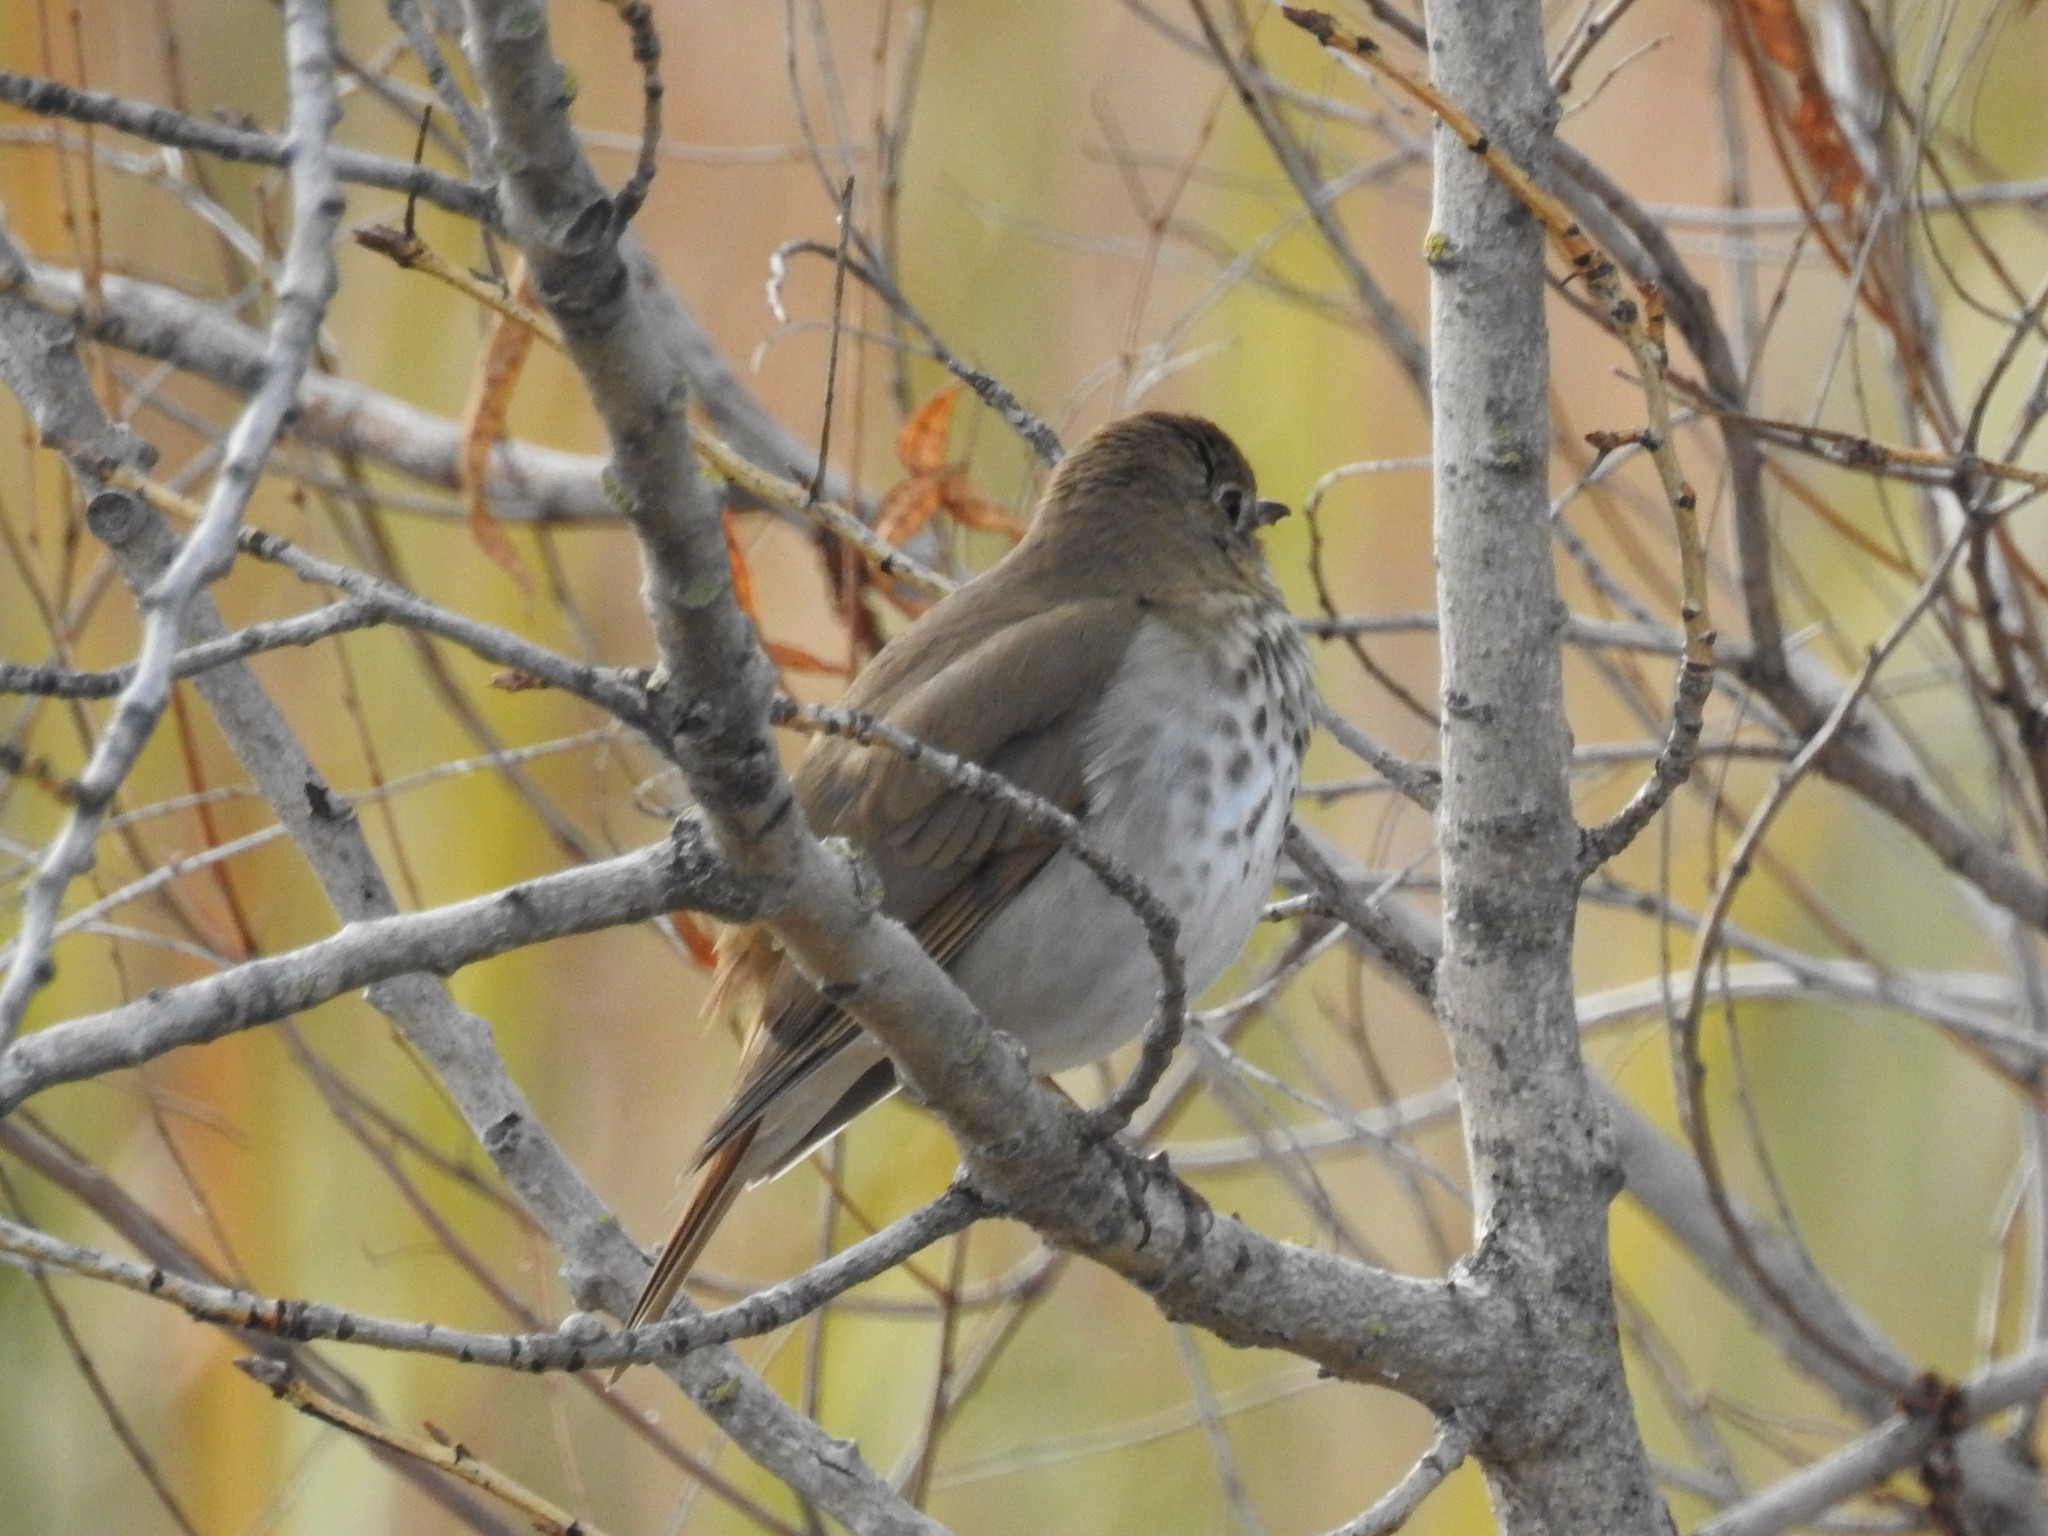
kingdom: Animalia
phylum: Chordata
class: Aves
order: Passeriformes
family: Turdidae
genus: Catharus
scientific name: Catharus guttatus
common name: Hermit thrush
